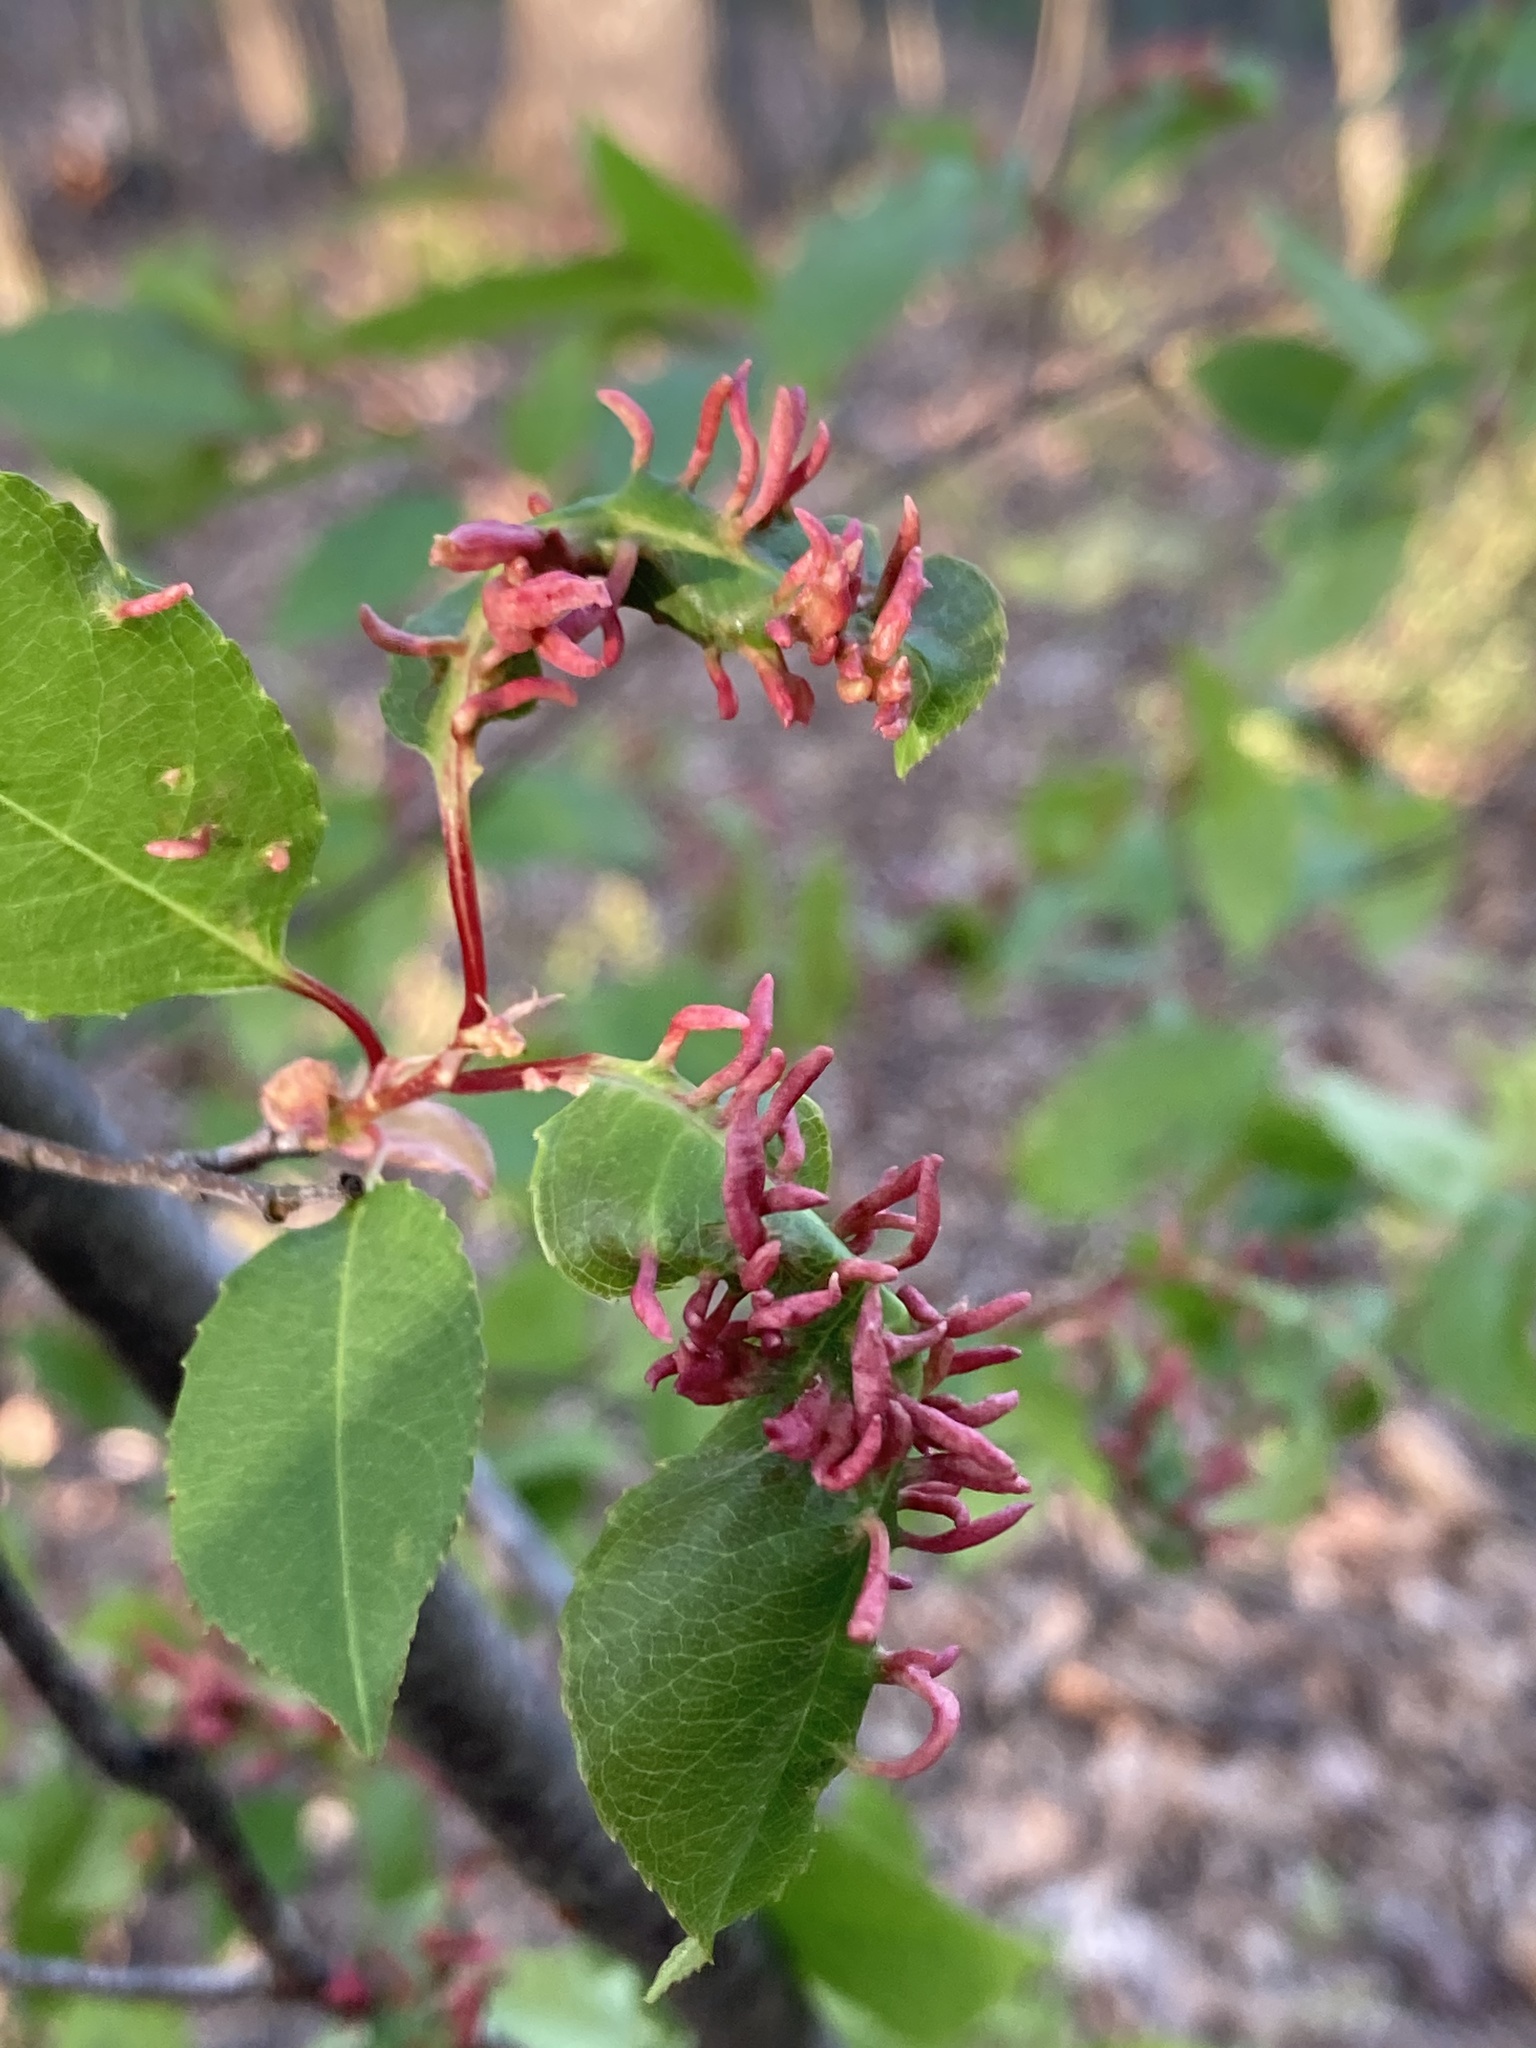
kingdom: Animalia
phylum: Arthropoda
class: Arachnida
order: Trombidiformes
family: Eriophyidae
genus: Eriophyes
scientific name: Eriophyes
